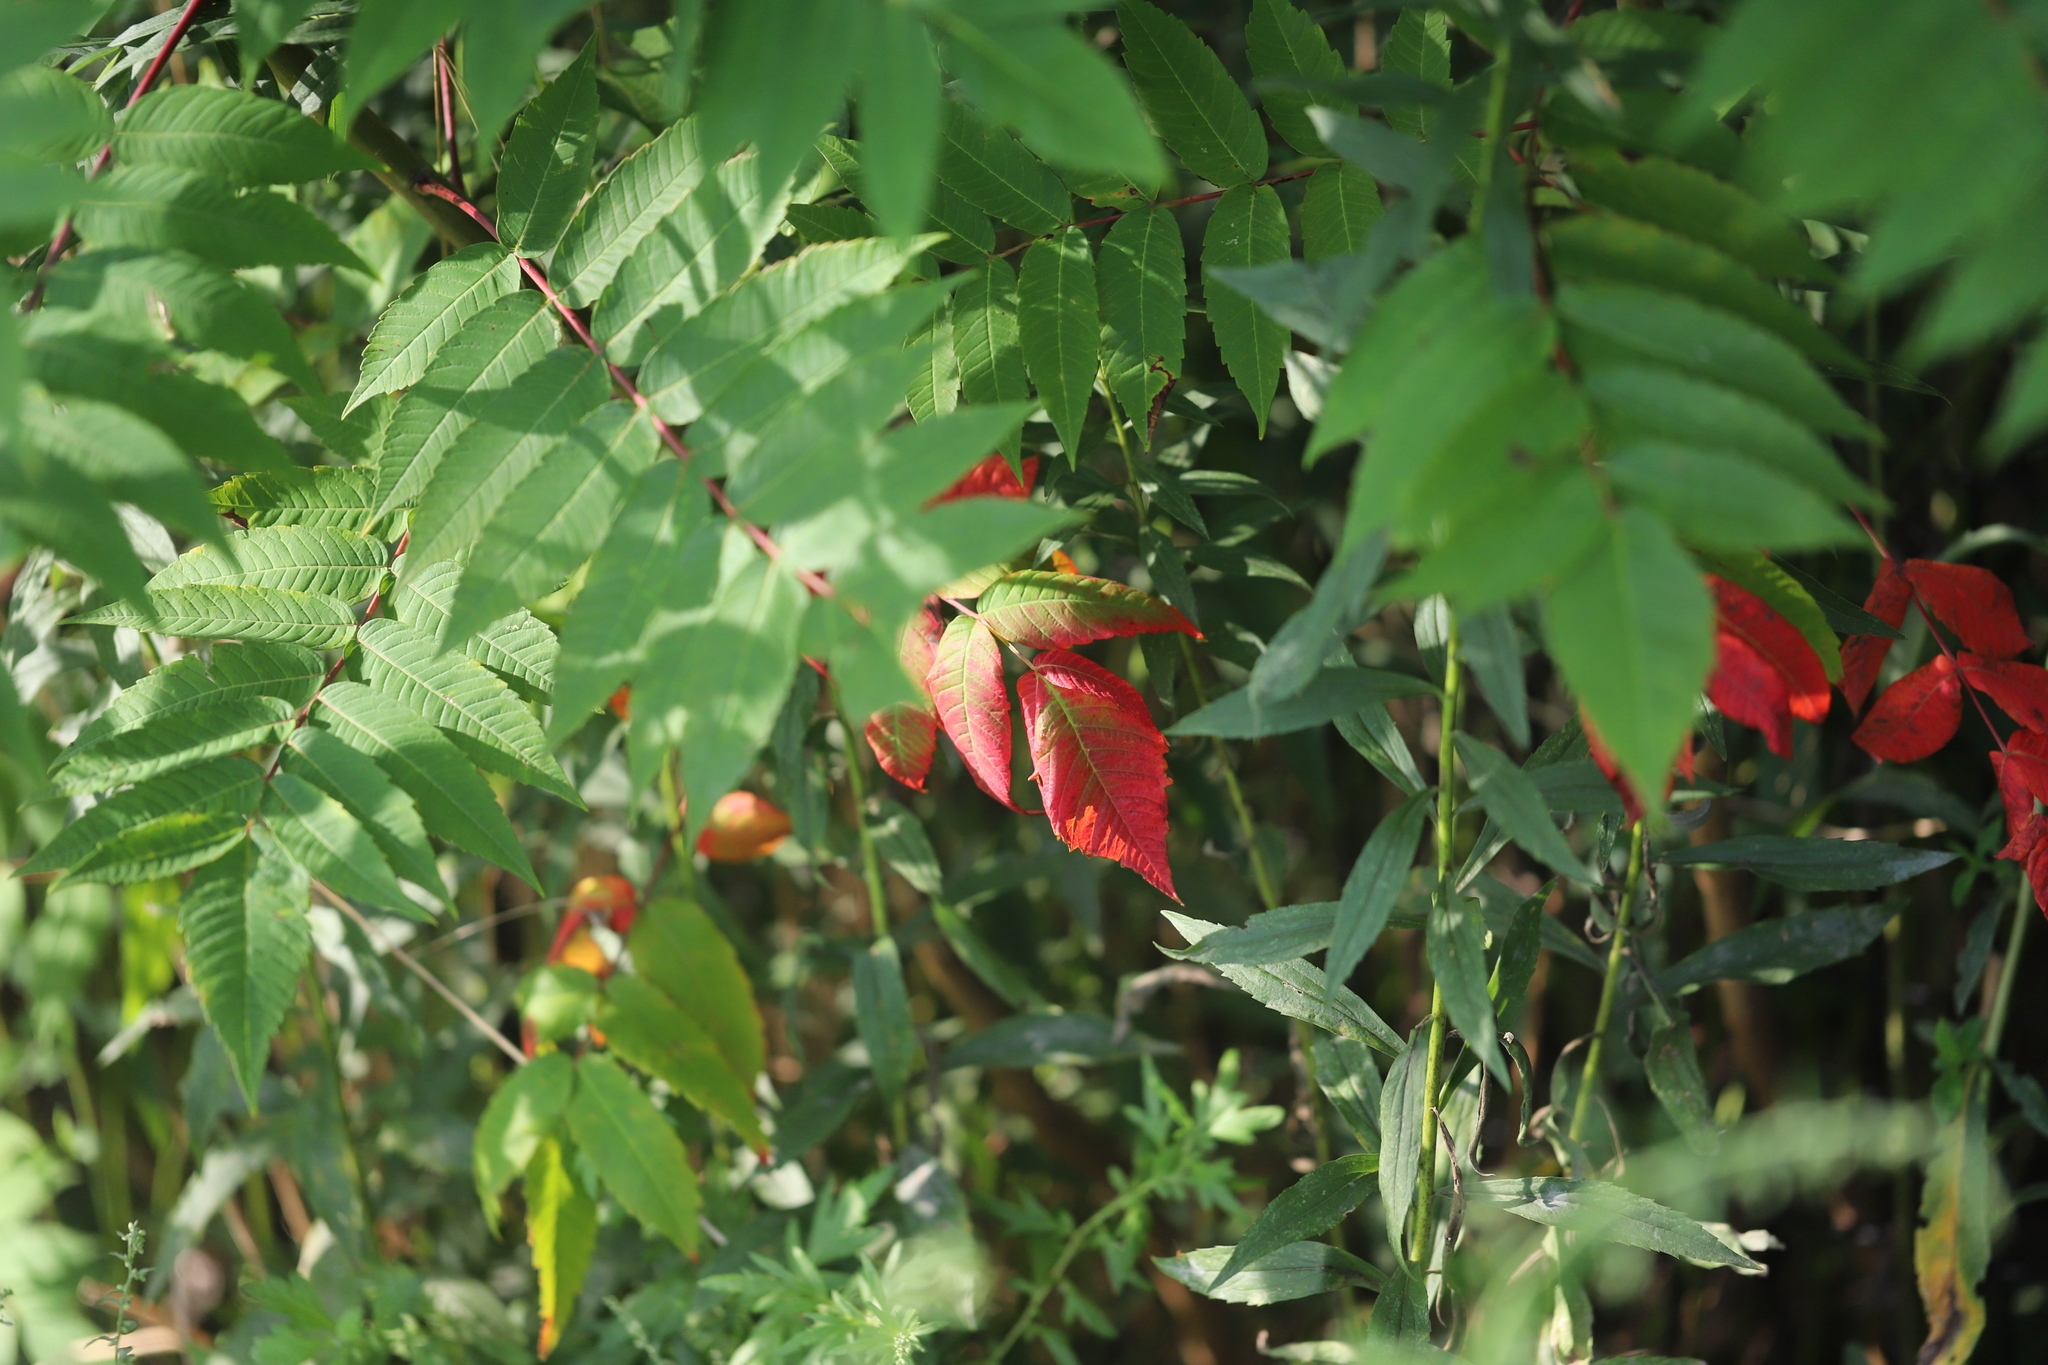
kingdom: Plantae
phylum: Tracheophyta
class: Magnoliopsida
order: Sapindales
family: Anacardiaceae
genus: Rhus
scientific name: Rhus glabra
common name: Scarlet sumac
